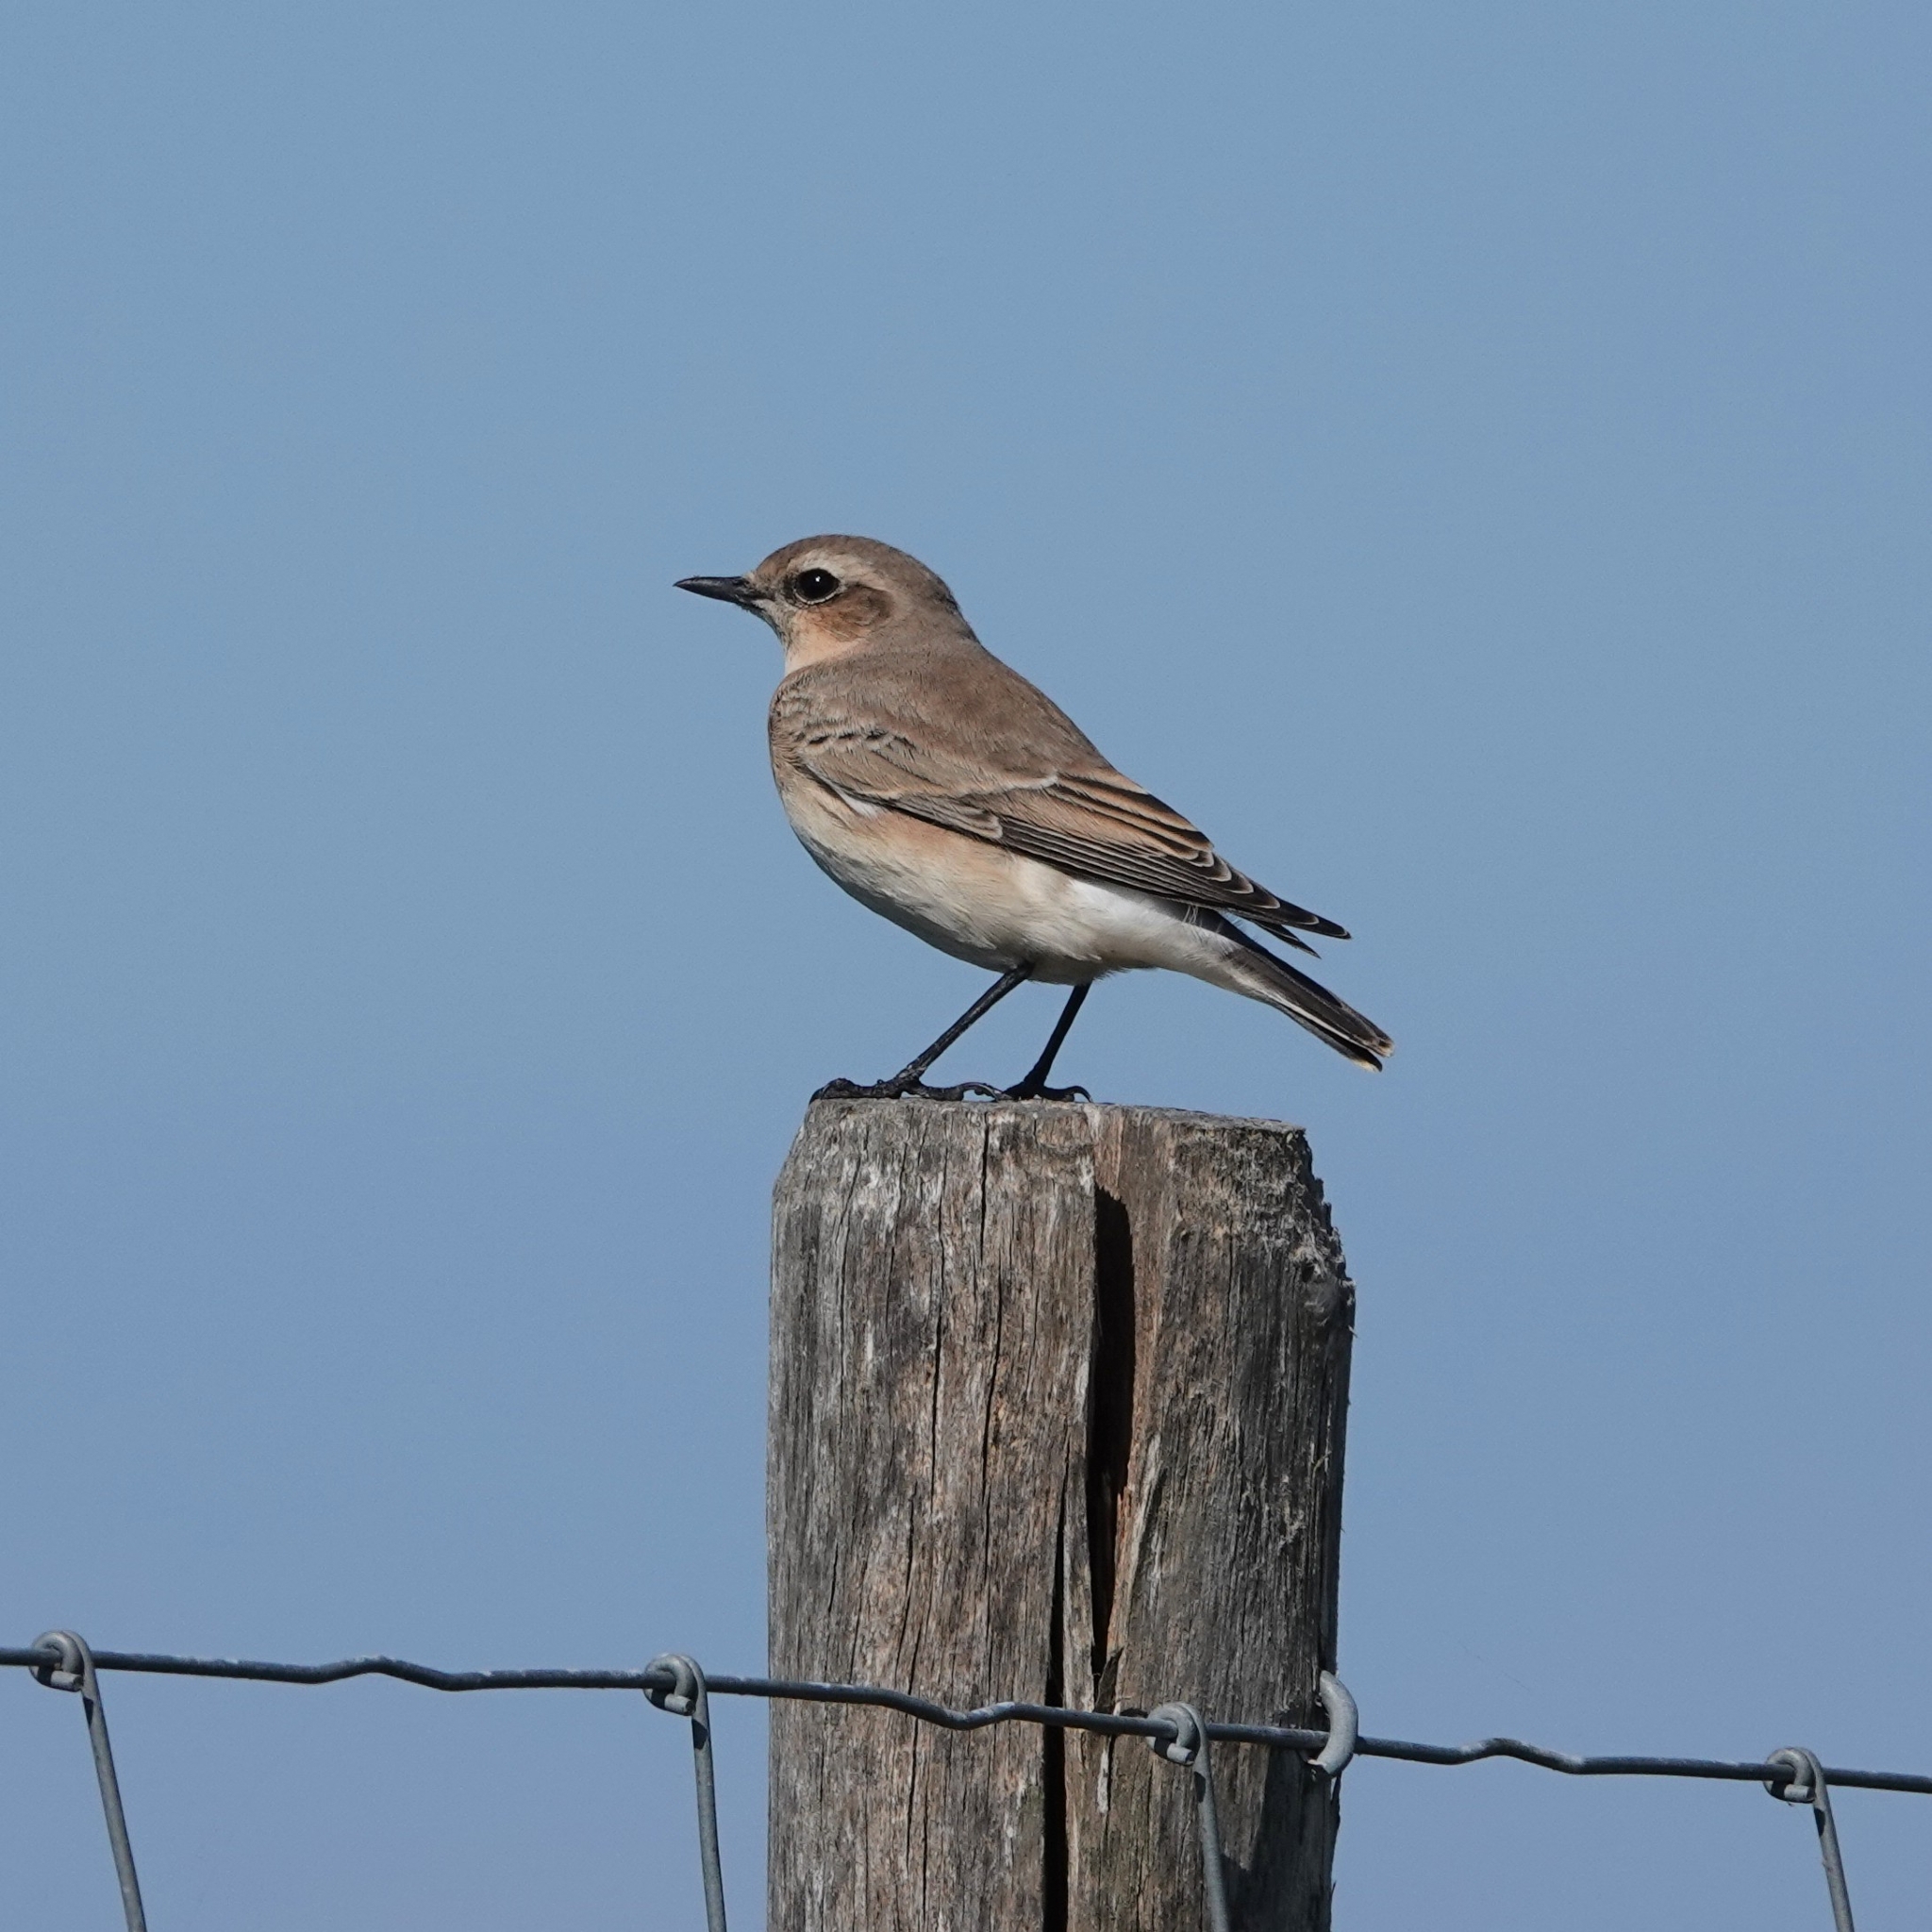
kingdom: Animalia
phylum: Chordata
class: Aves
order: Passeriformes
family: Muscicapidae
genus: Oenanthe
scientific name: Oenanthe oenanthe
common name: Northern wheatear
